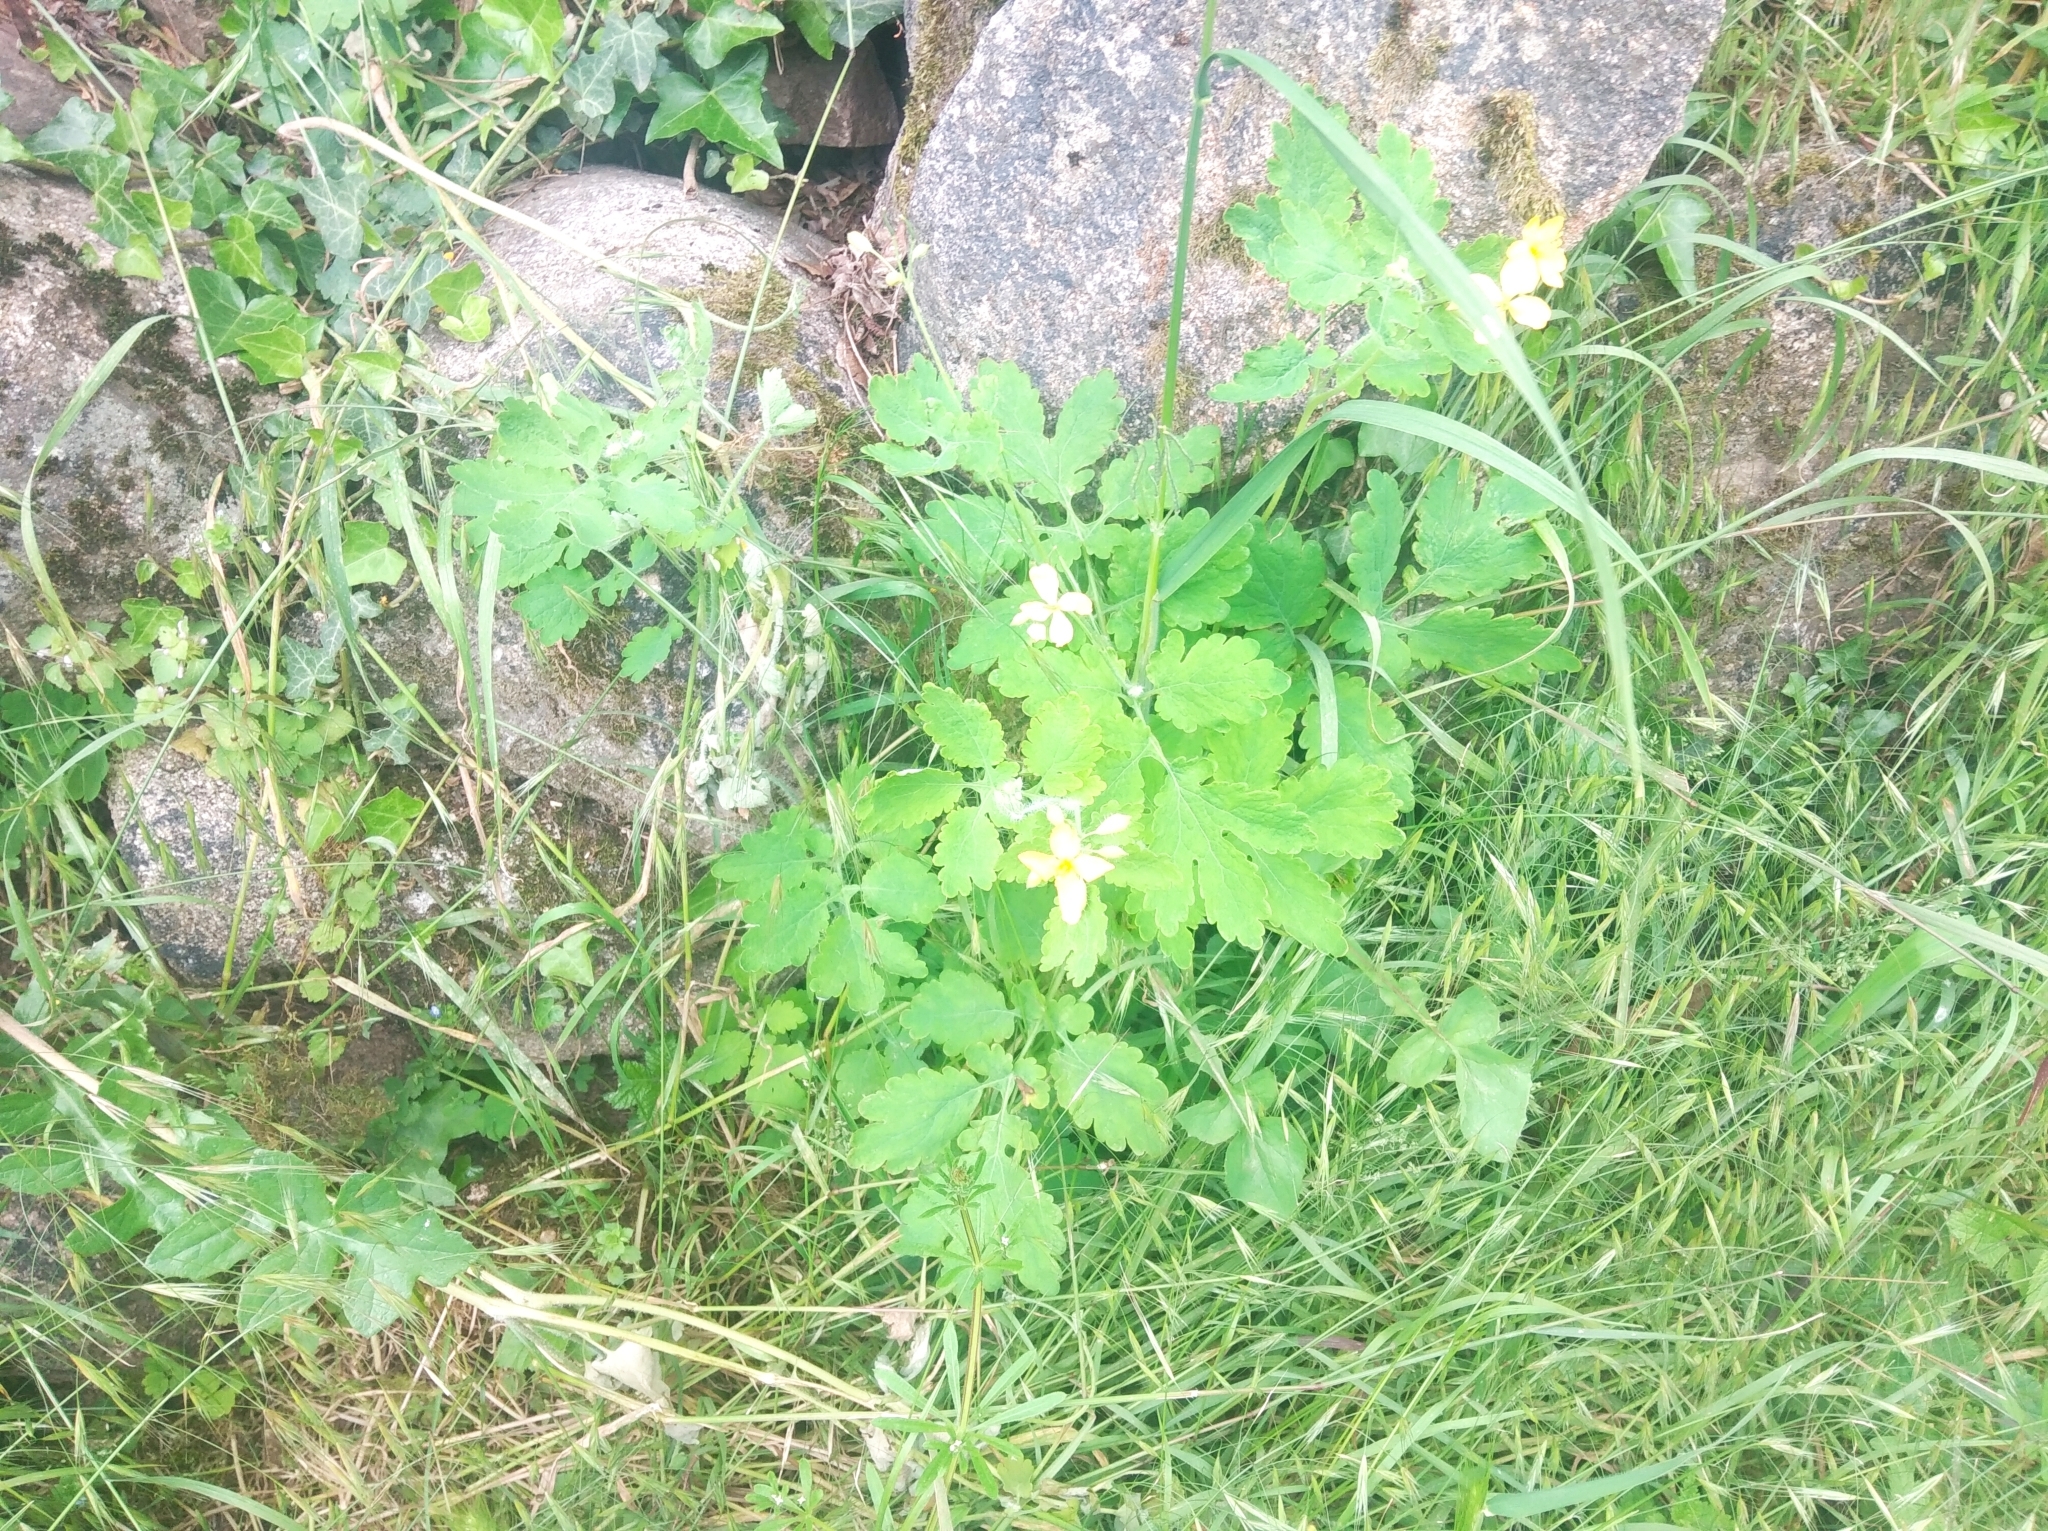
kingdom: Plantae
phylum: Tracheophyta
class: Magnoliopsida
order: Ranunculales
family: Papaveraceae
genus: Chelidonium
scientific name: Chelidonium majus
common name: Greater celandine
